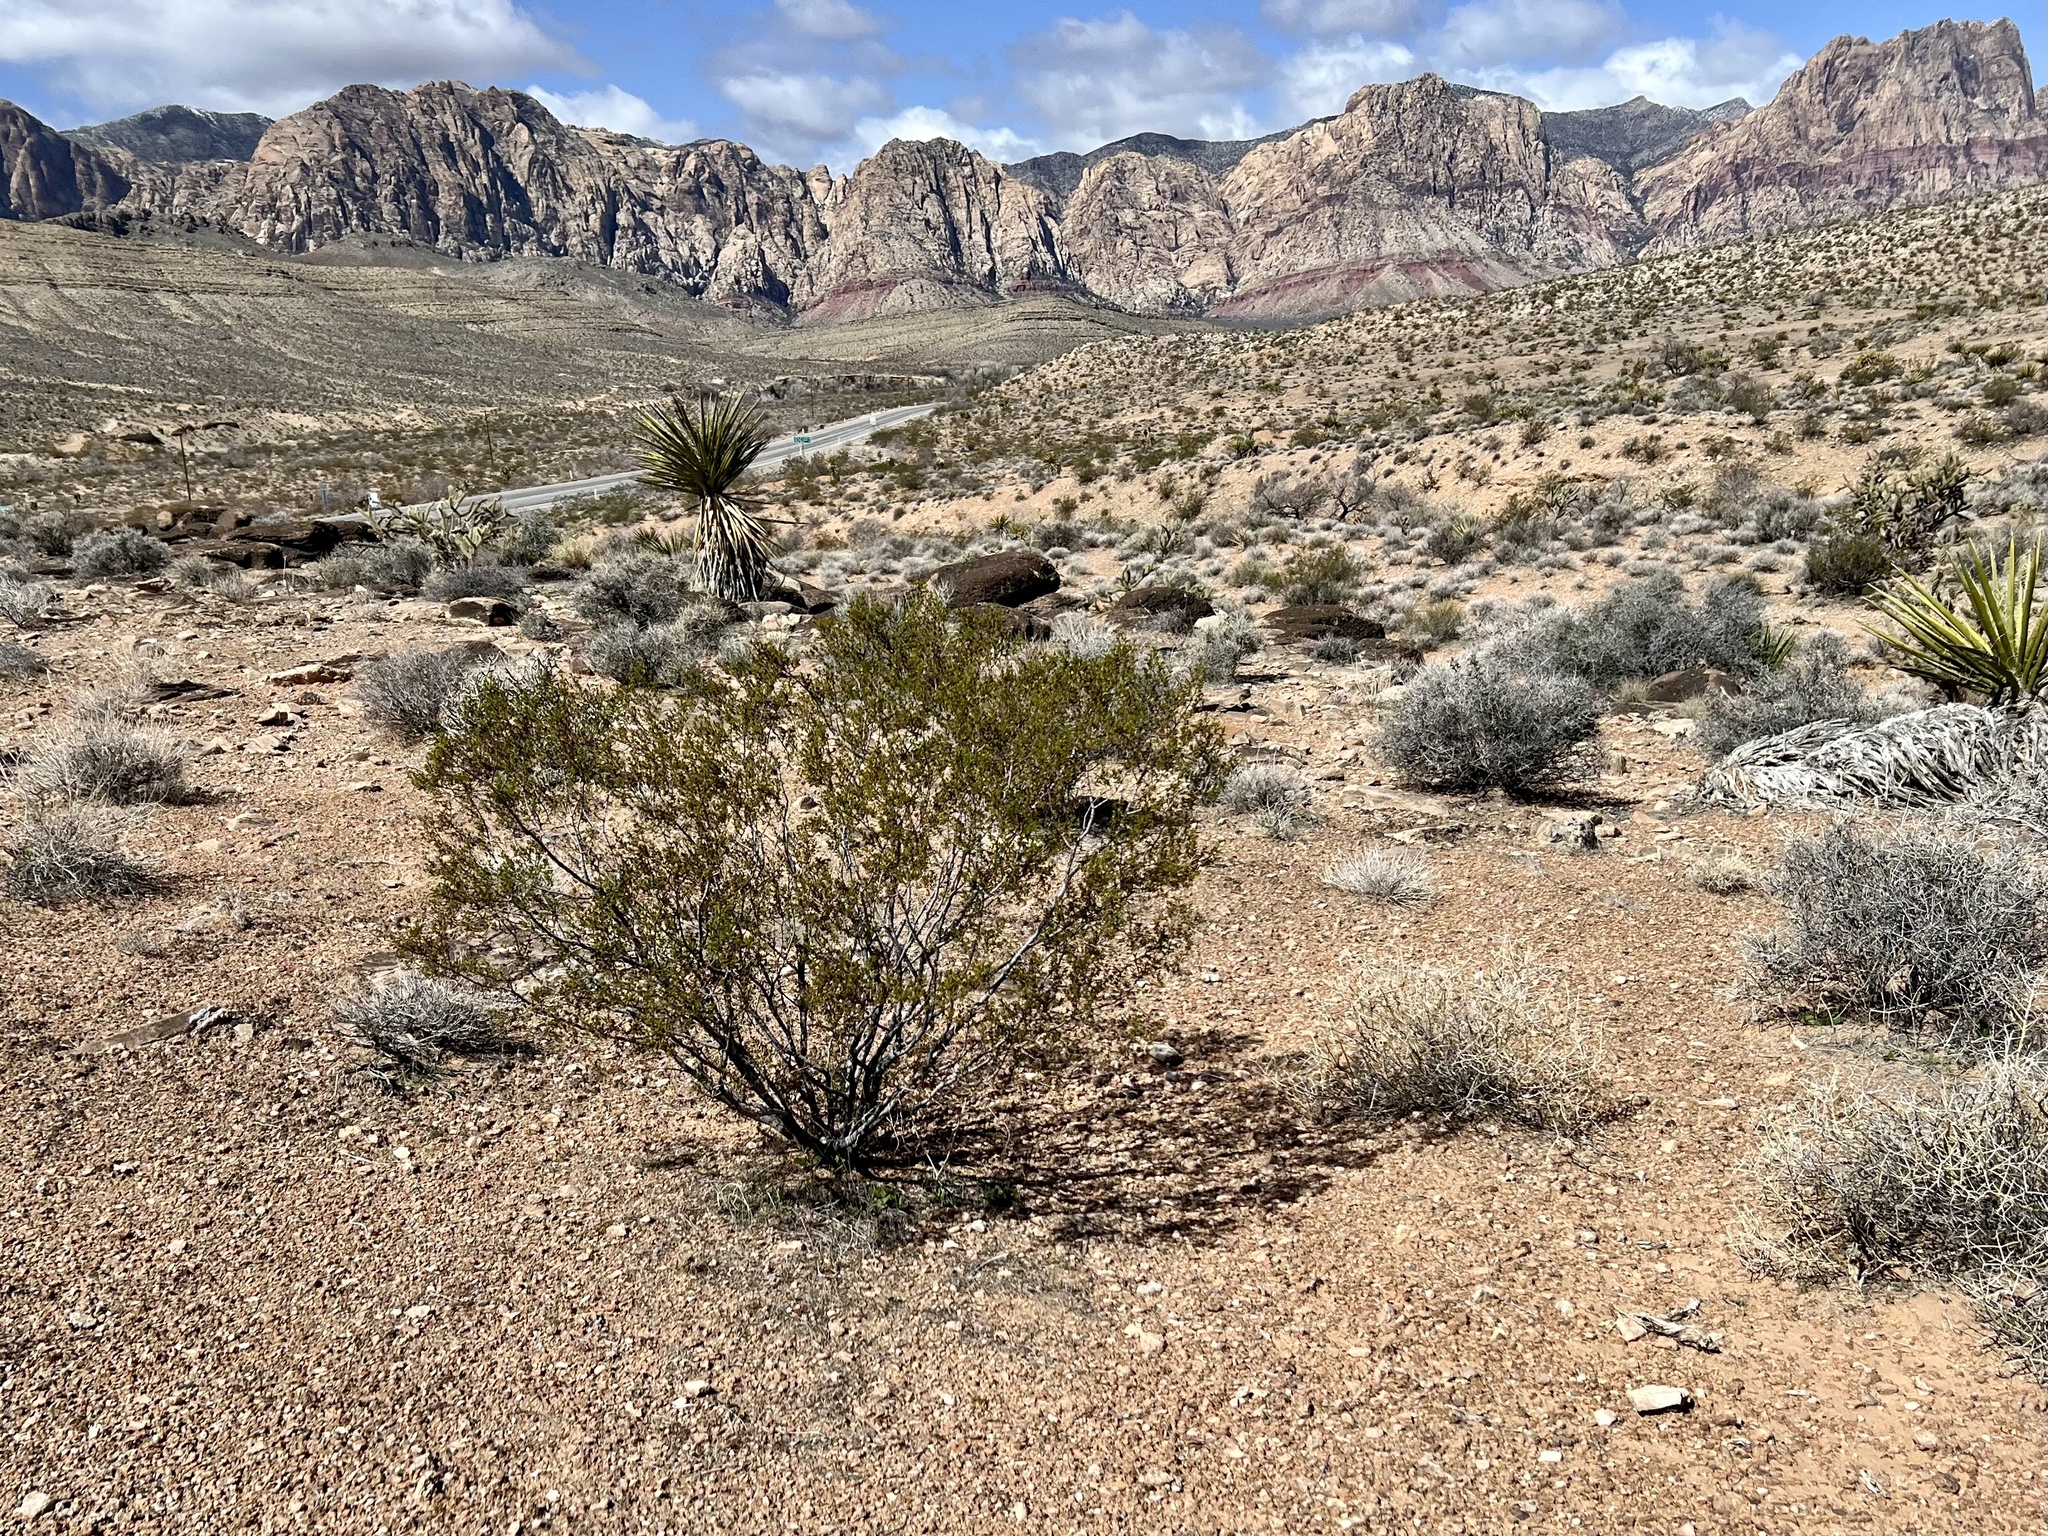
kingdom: Plantae
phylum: Tracheophyta
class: Magnoliopsida
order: Zygophyllales
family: Zygophyllaceae
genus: Larrea
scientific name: Larrea tridentata
